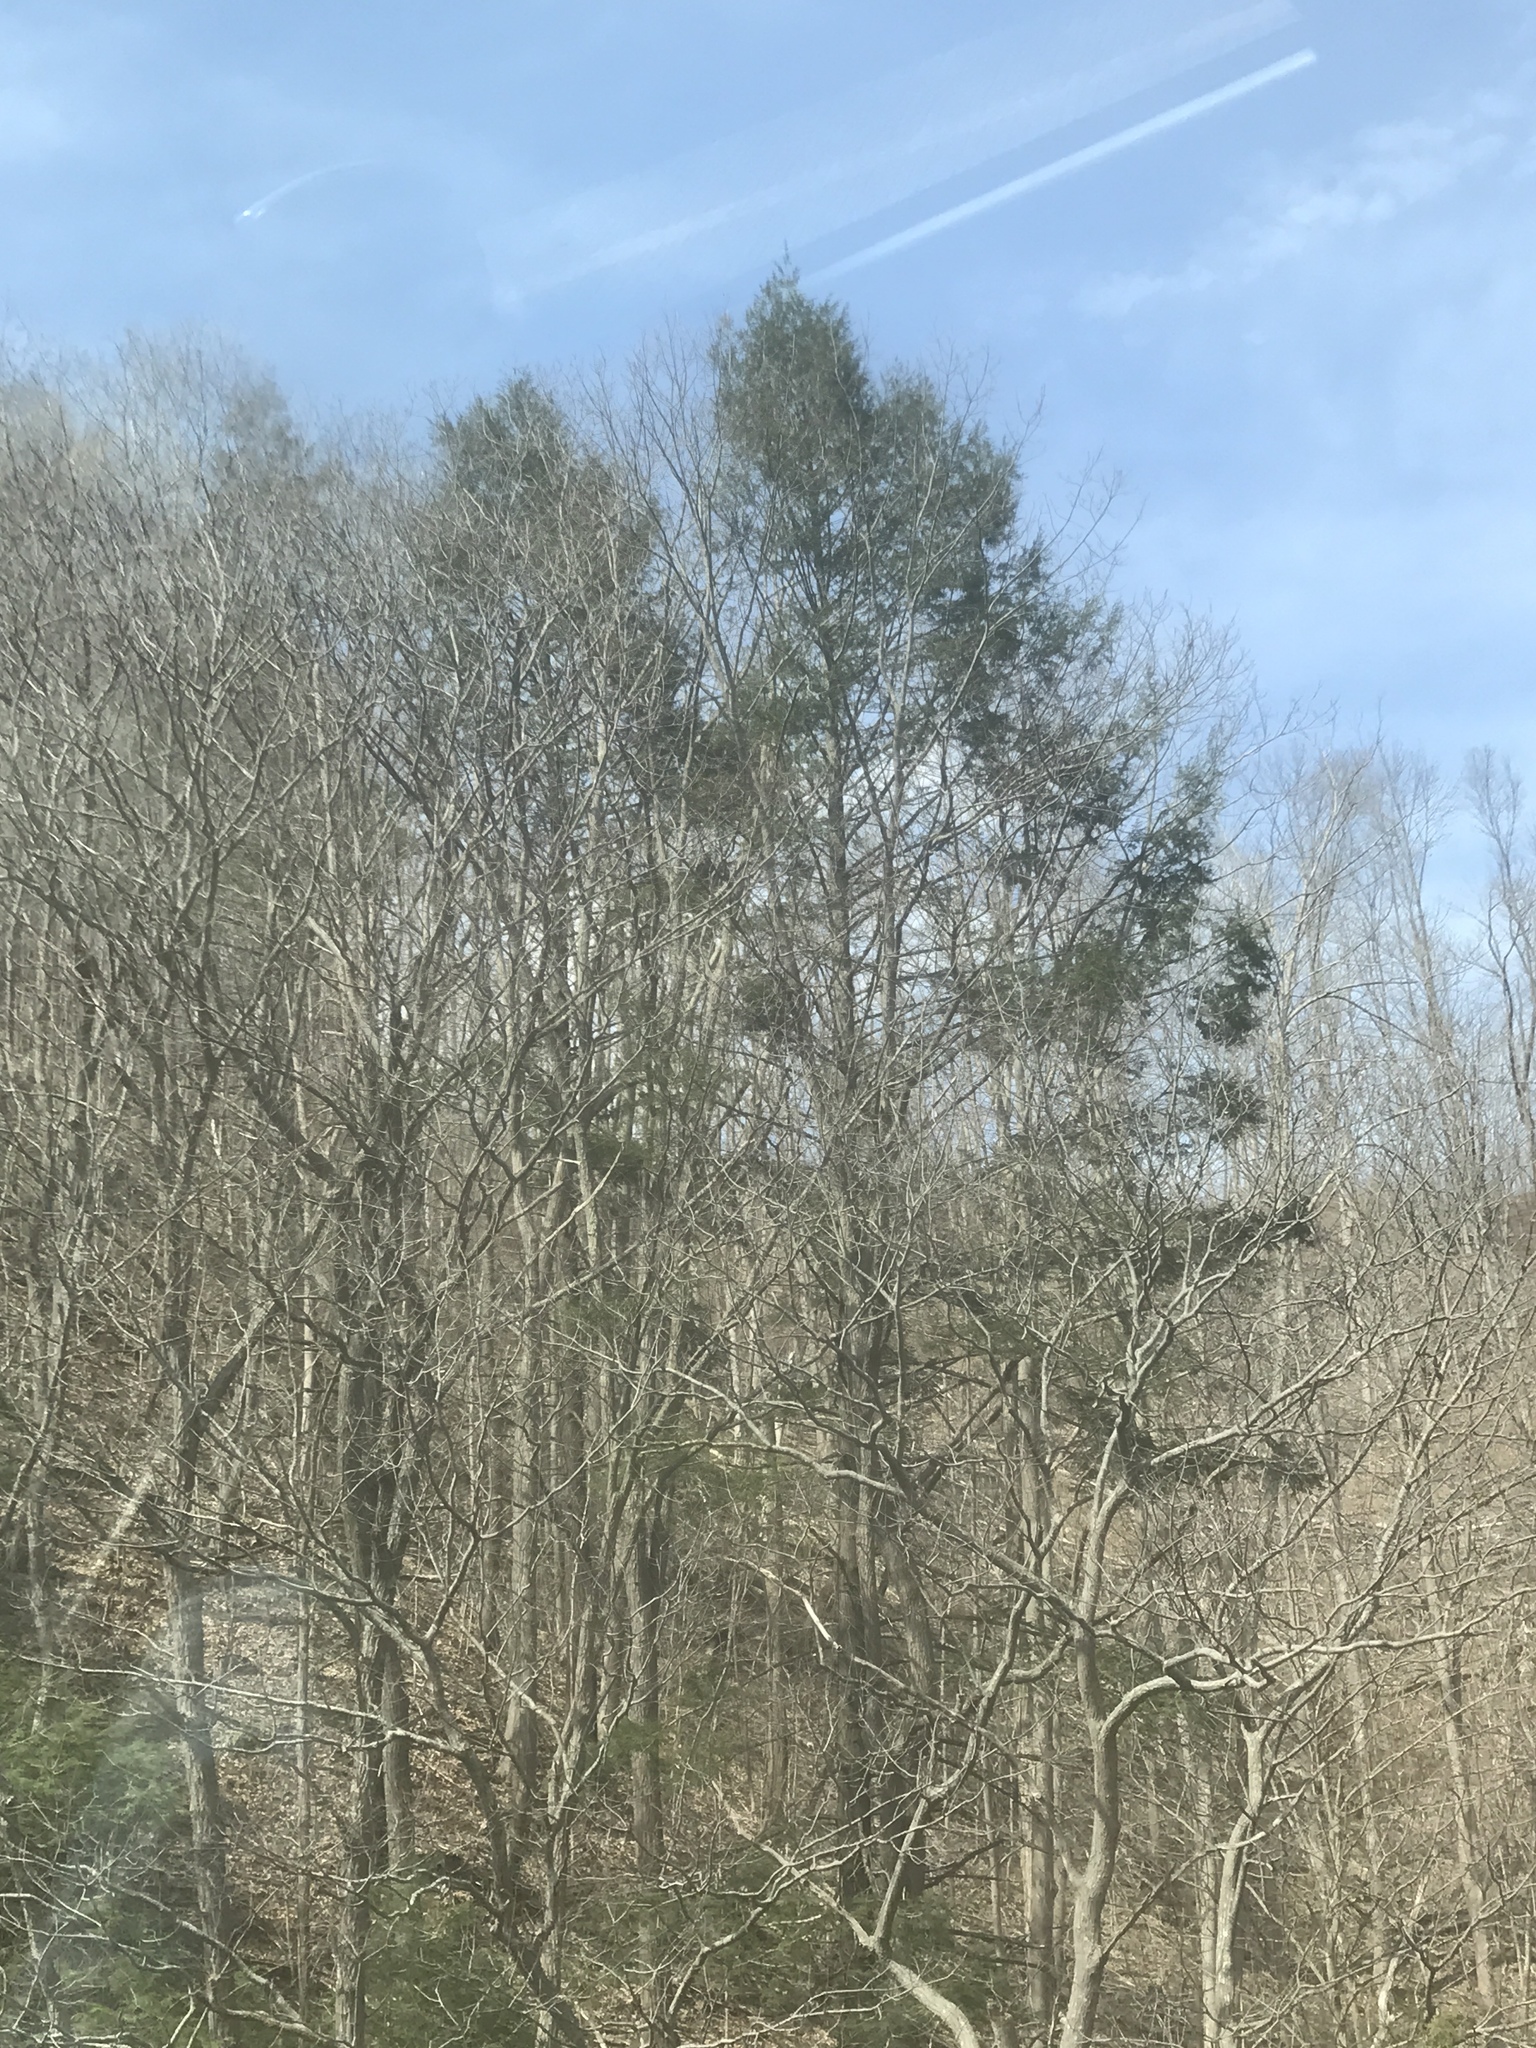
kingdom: Plantae
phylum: Tracheophyta
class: Pinopsida
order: Pinales
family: Pinaceae
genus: Tsuga
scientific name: Tsuga canadensis
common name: Eastern hemlock
